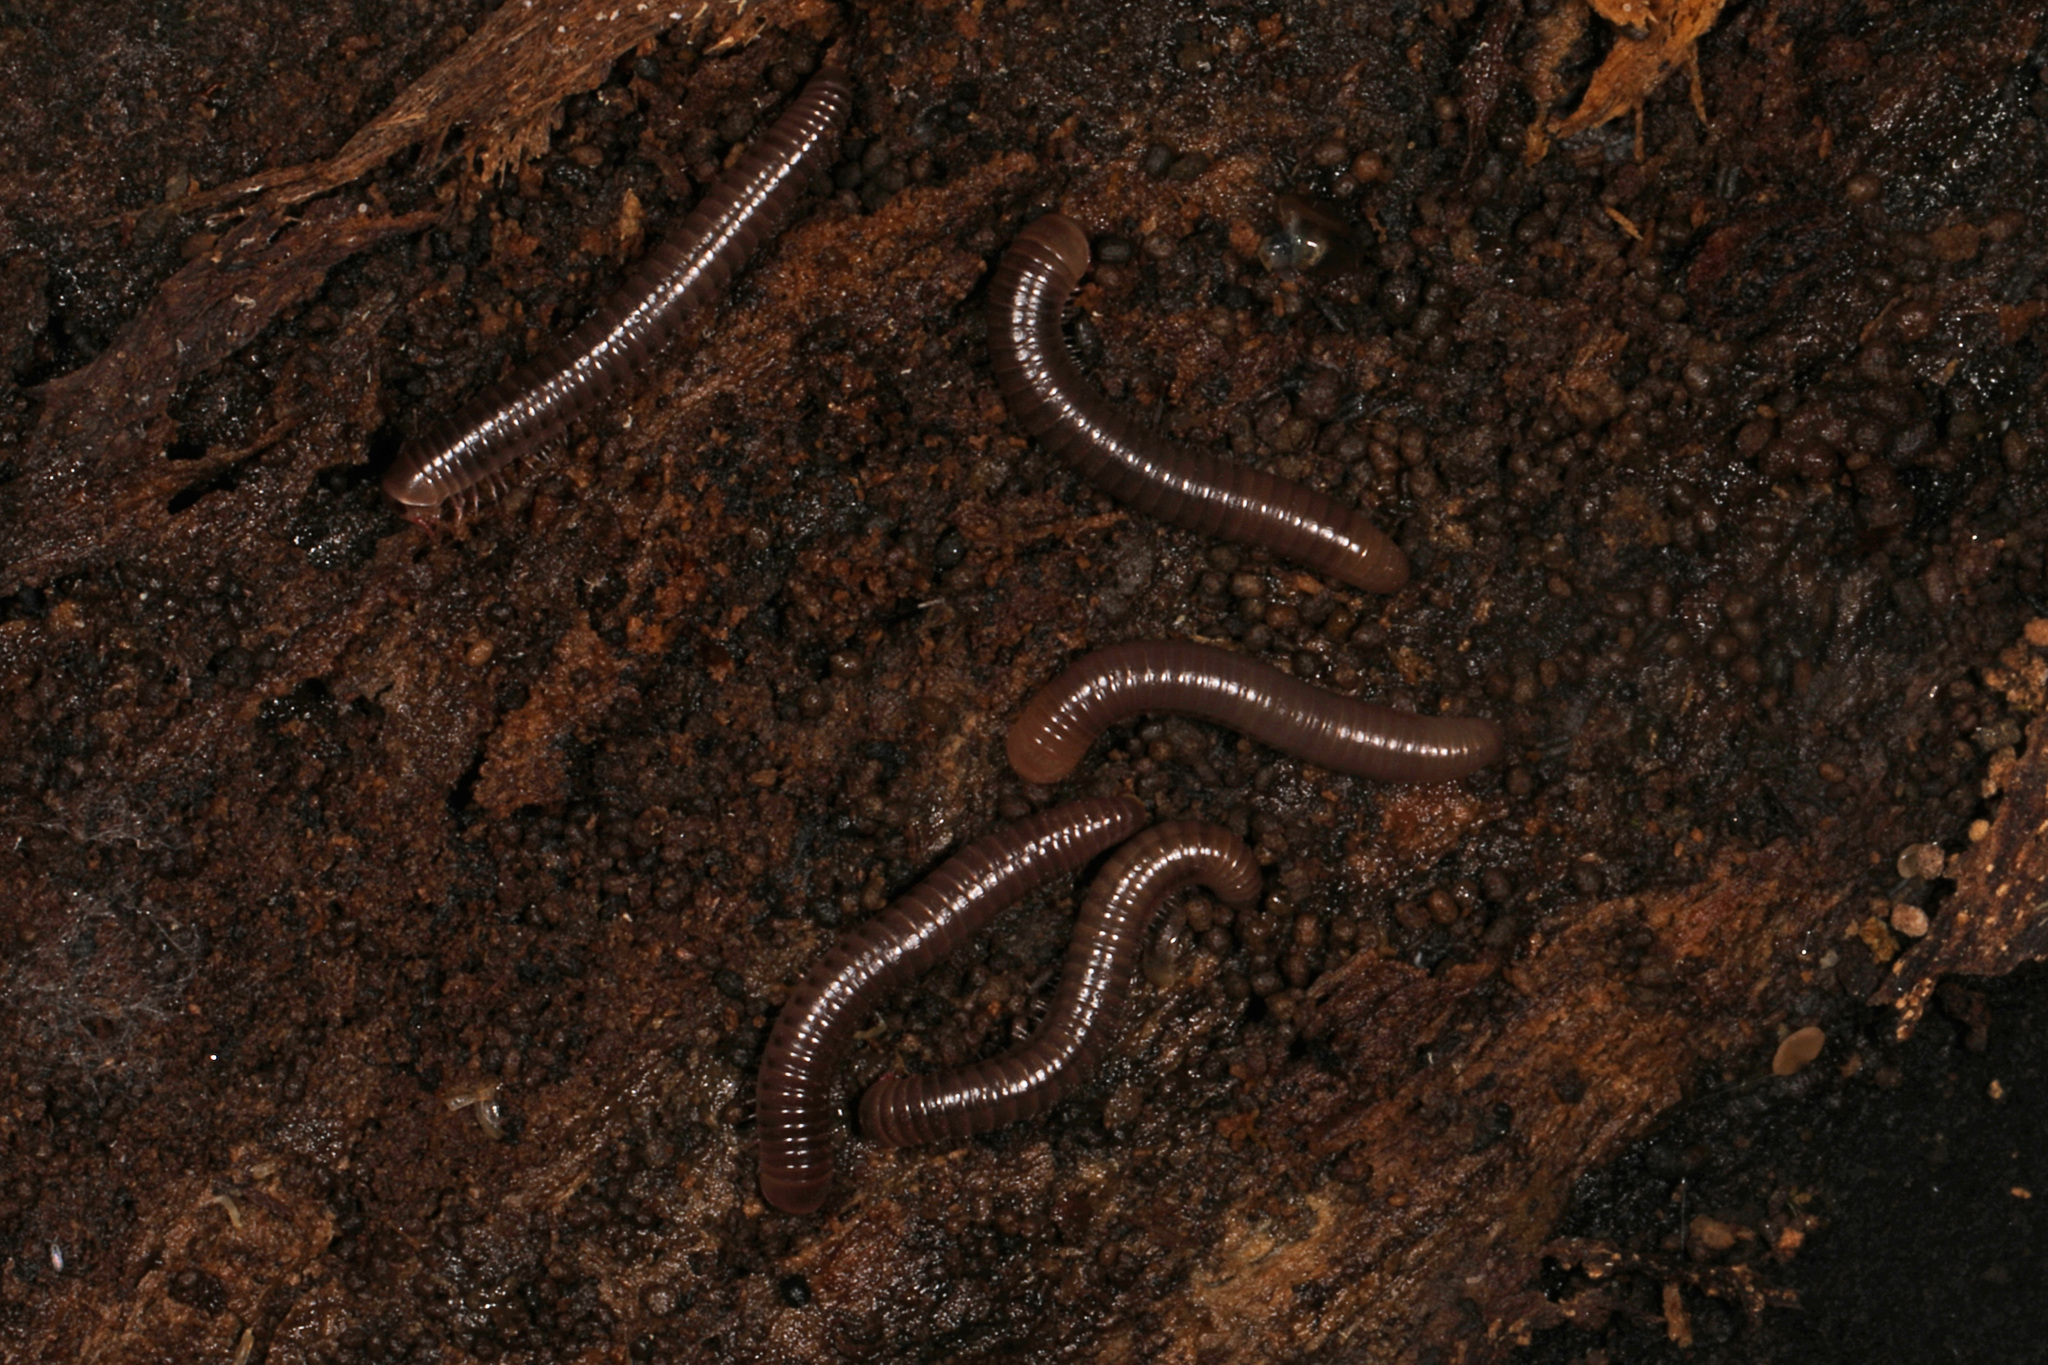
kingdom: Animalia
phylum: Arthropoda
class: Diplopoda
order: Spirobolida
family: Spirobolidae
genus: Narceus
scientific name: Narceus
